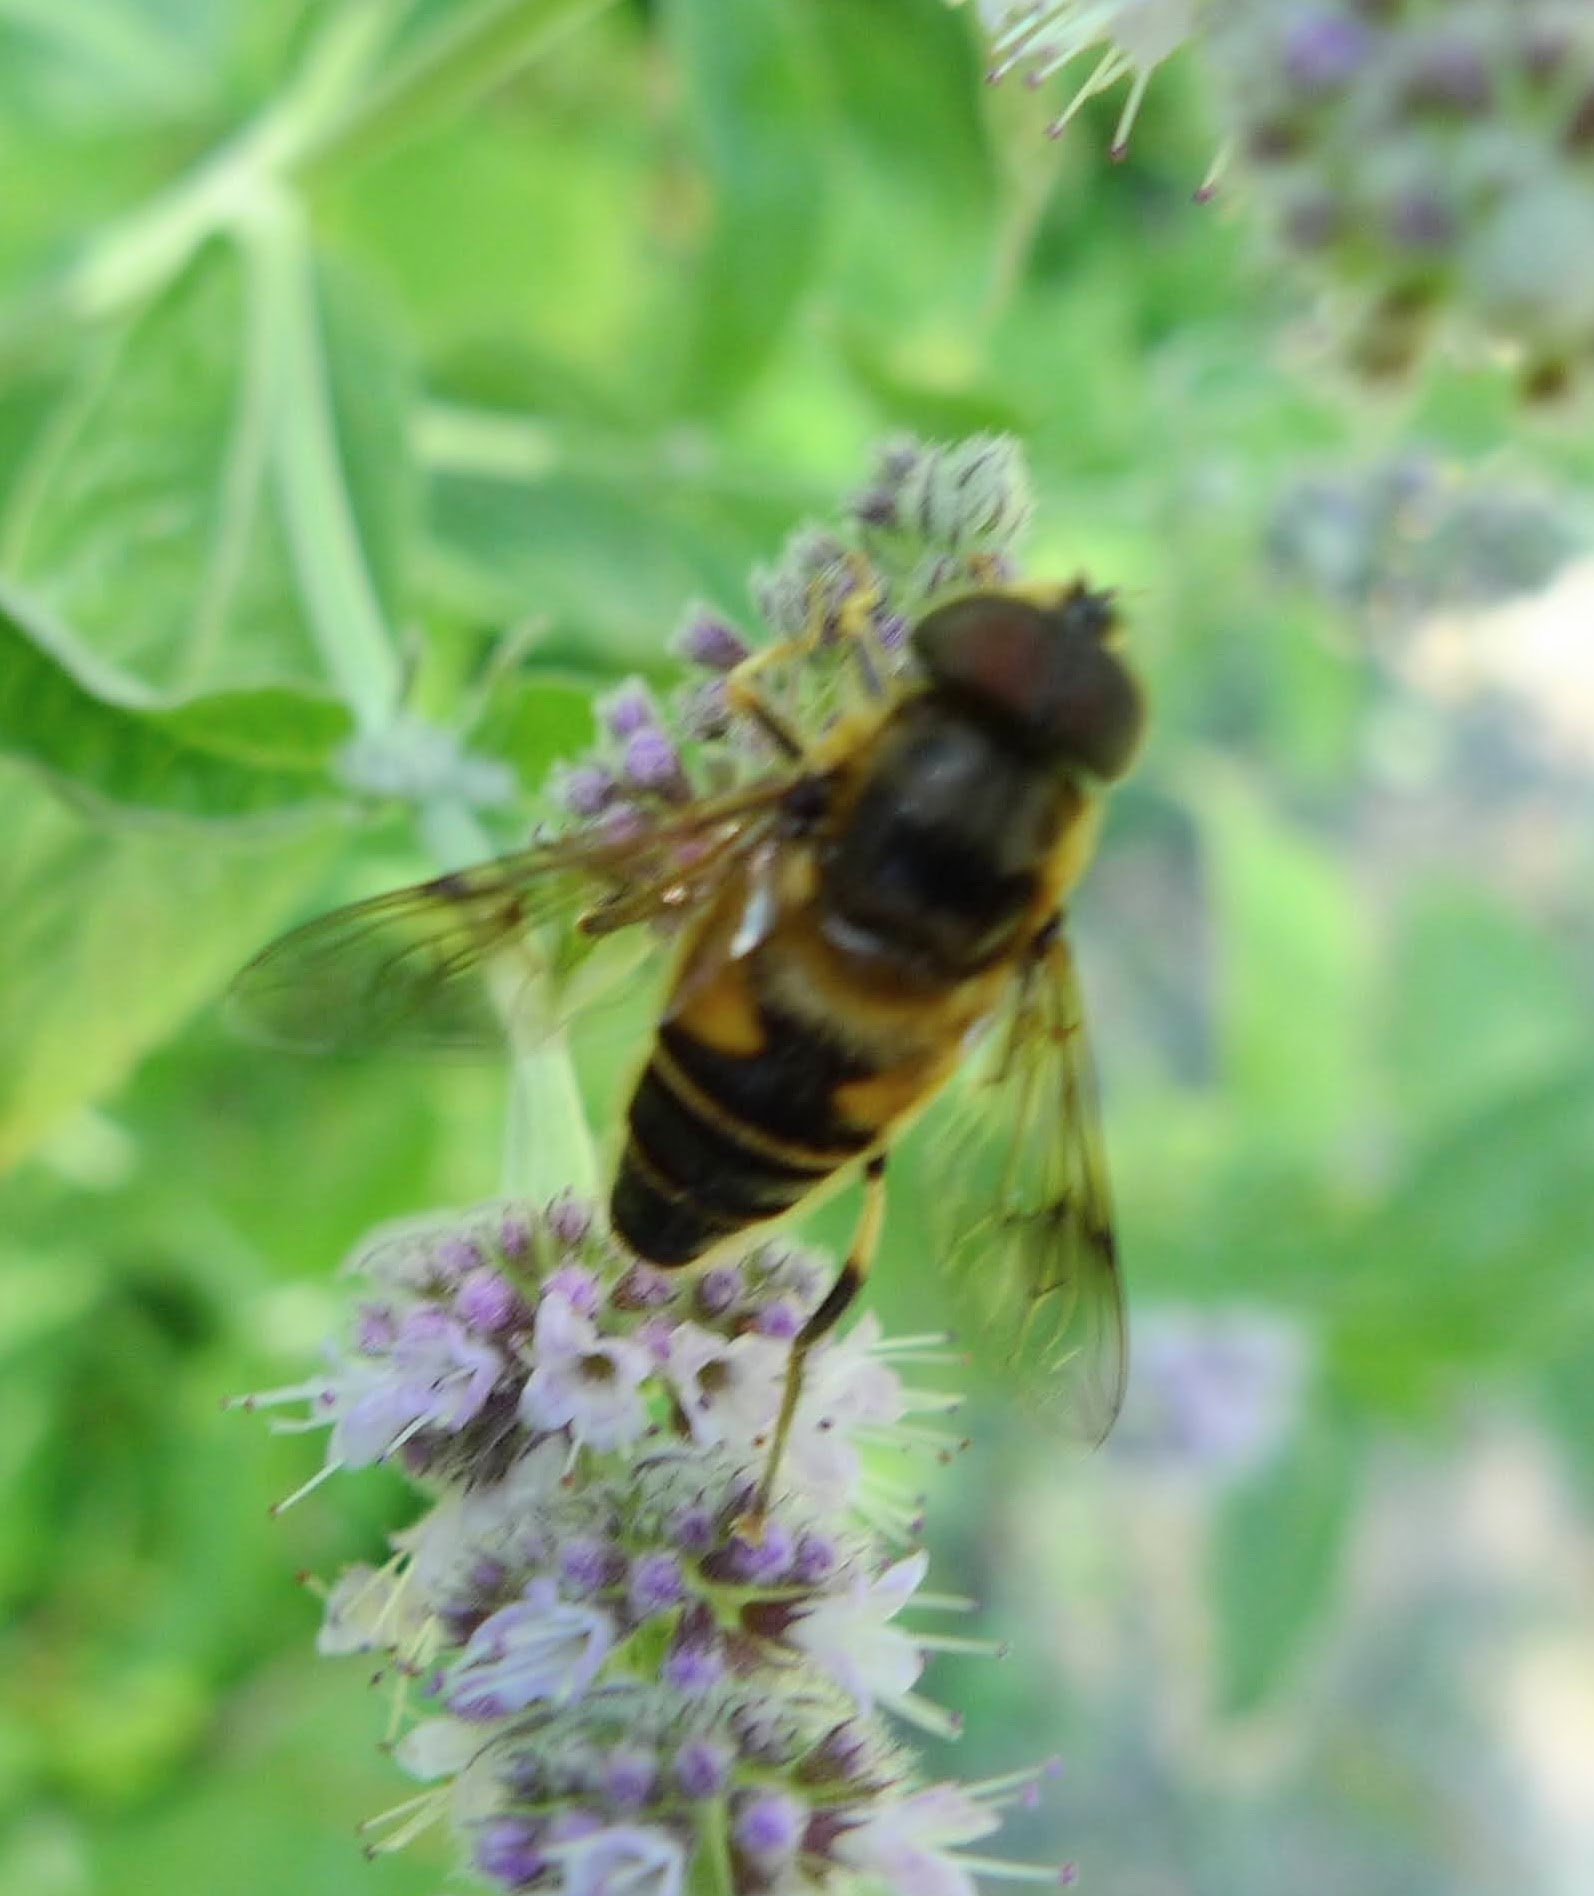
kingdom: Animalia
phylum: Arthropoda
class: Insecta
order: Diptera
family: Syrphidae
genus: Eristalis
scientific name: Eristalis pertinax
